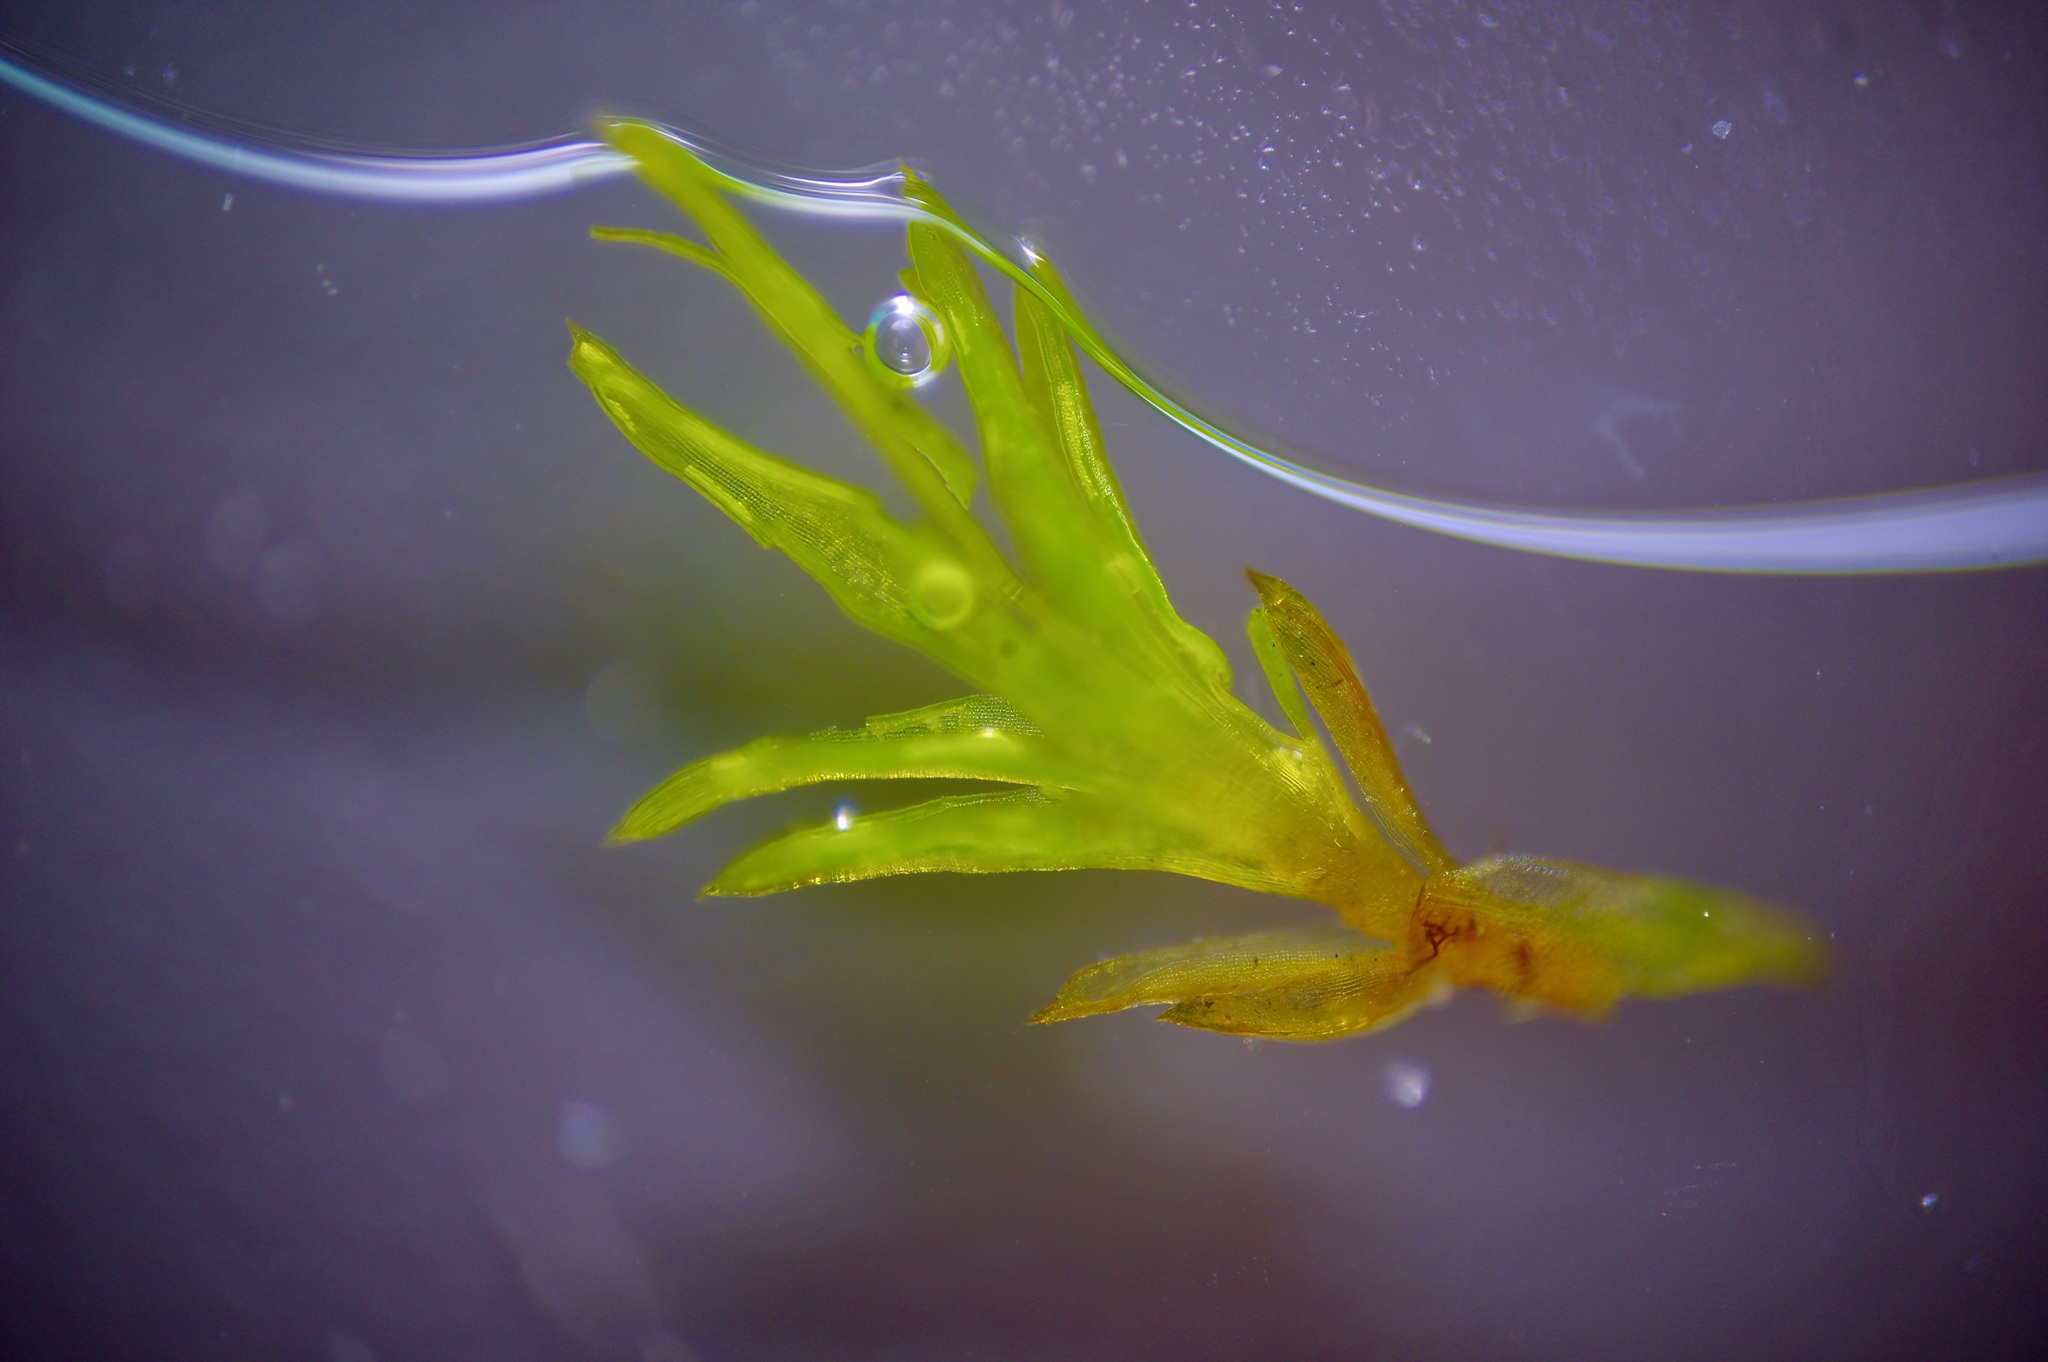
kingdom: Plantae
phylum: Bryophyta
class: Bryopsida
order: Pottiales
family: Pottiaceae
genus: Weissia
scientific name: Weissia controversa
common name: Green-tufted stubble moss
